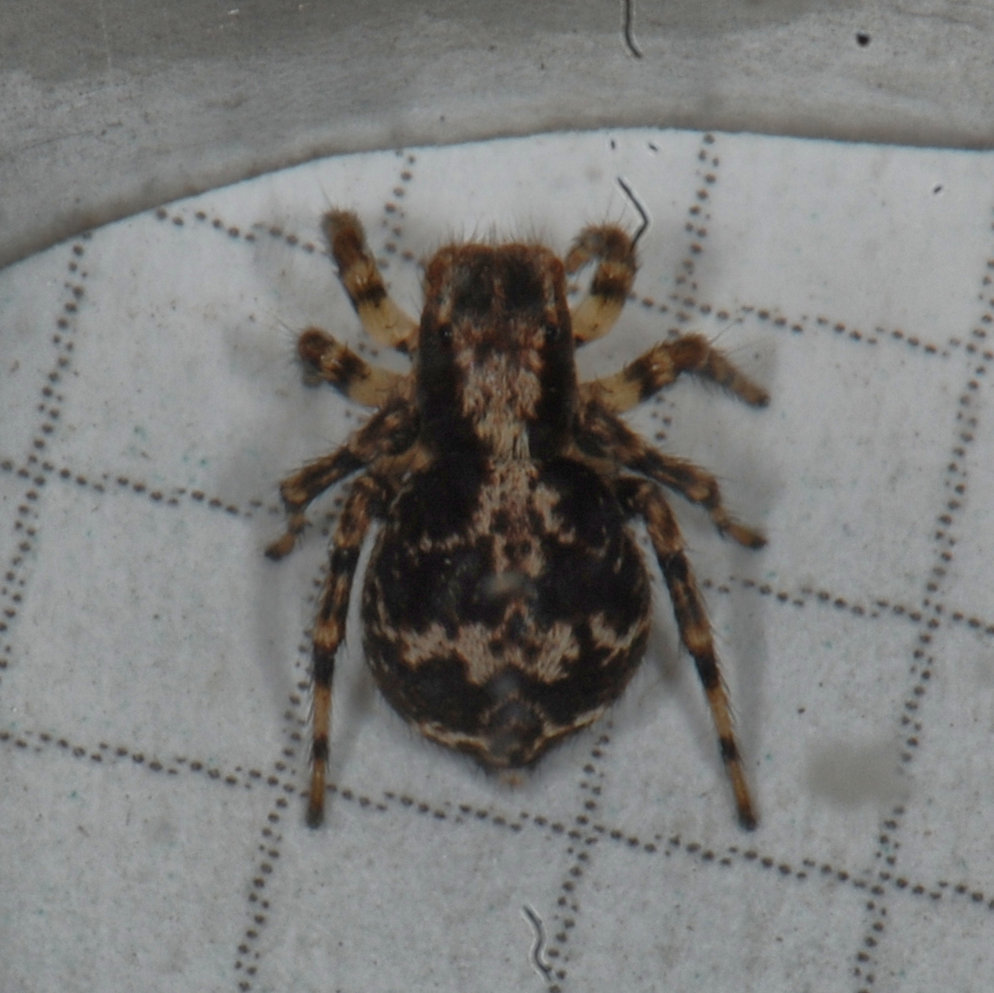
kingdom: Animalia
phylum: Arthropoda
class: Arachnida
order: Araneae
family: Salticidae
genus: Naphrys
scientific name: Naphrys pulex
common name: Flea jumping spider
